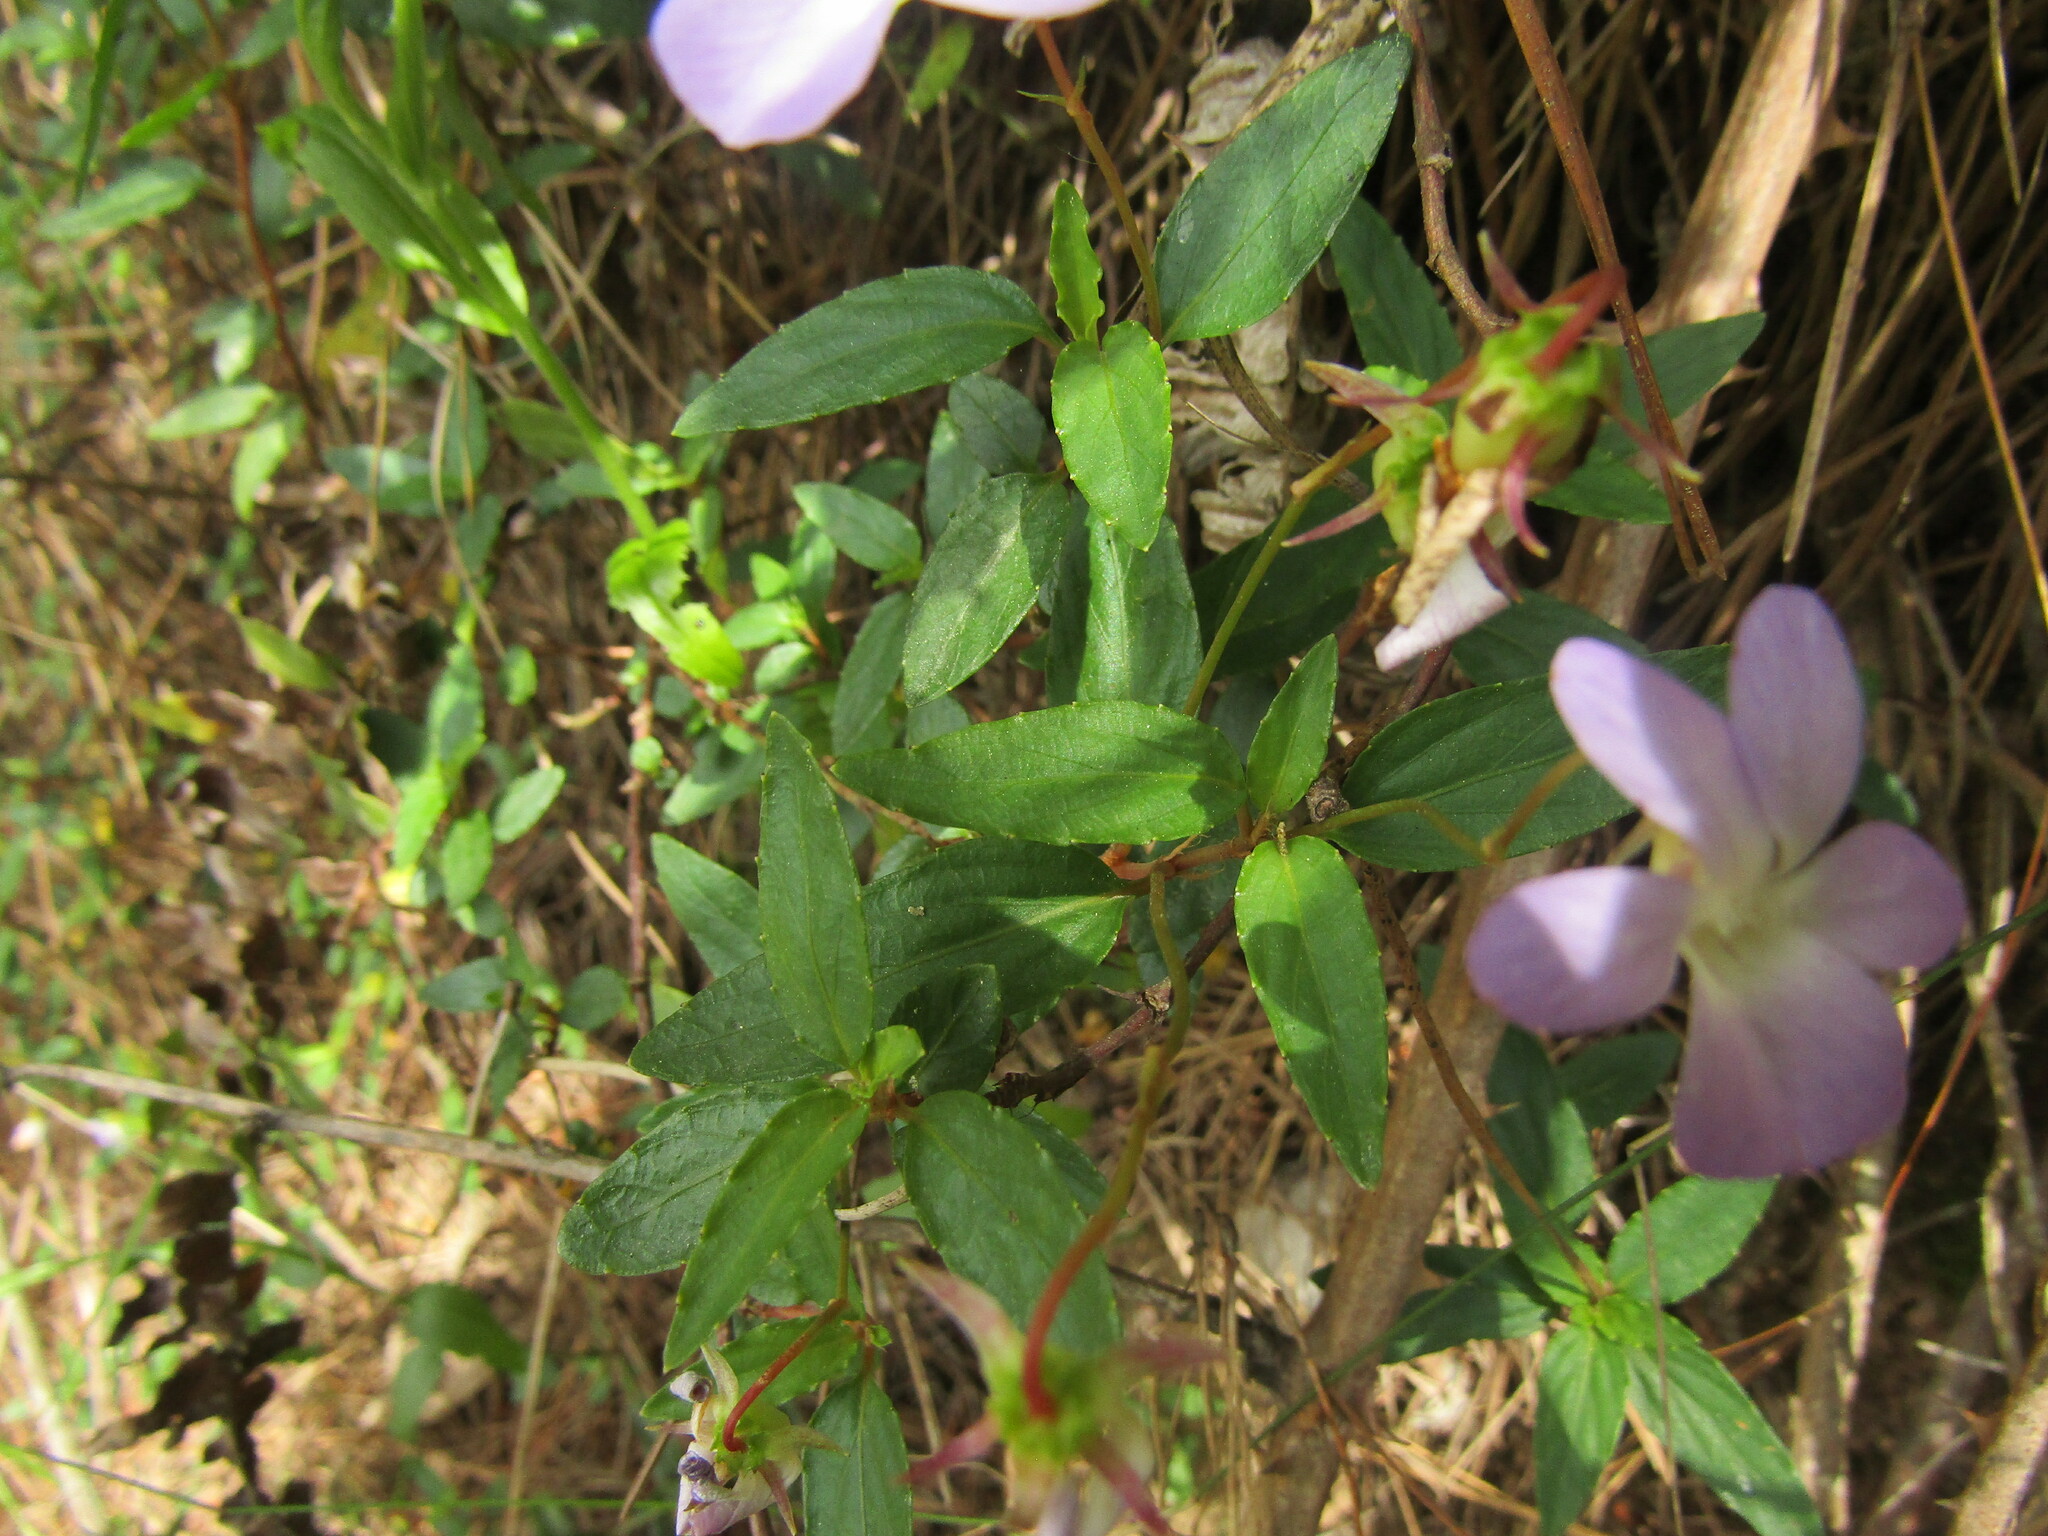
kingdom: Plantae
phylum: Tracheophyta
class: Magnoliopsida
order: Malpighiales
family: Violaceae
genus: Viola
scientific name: Viola portalesia
